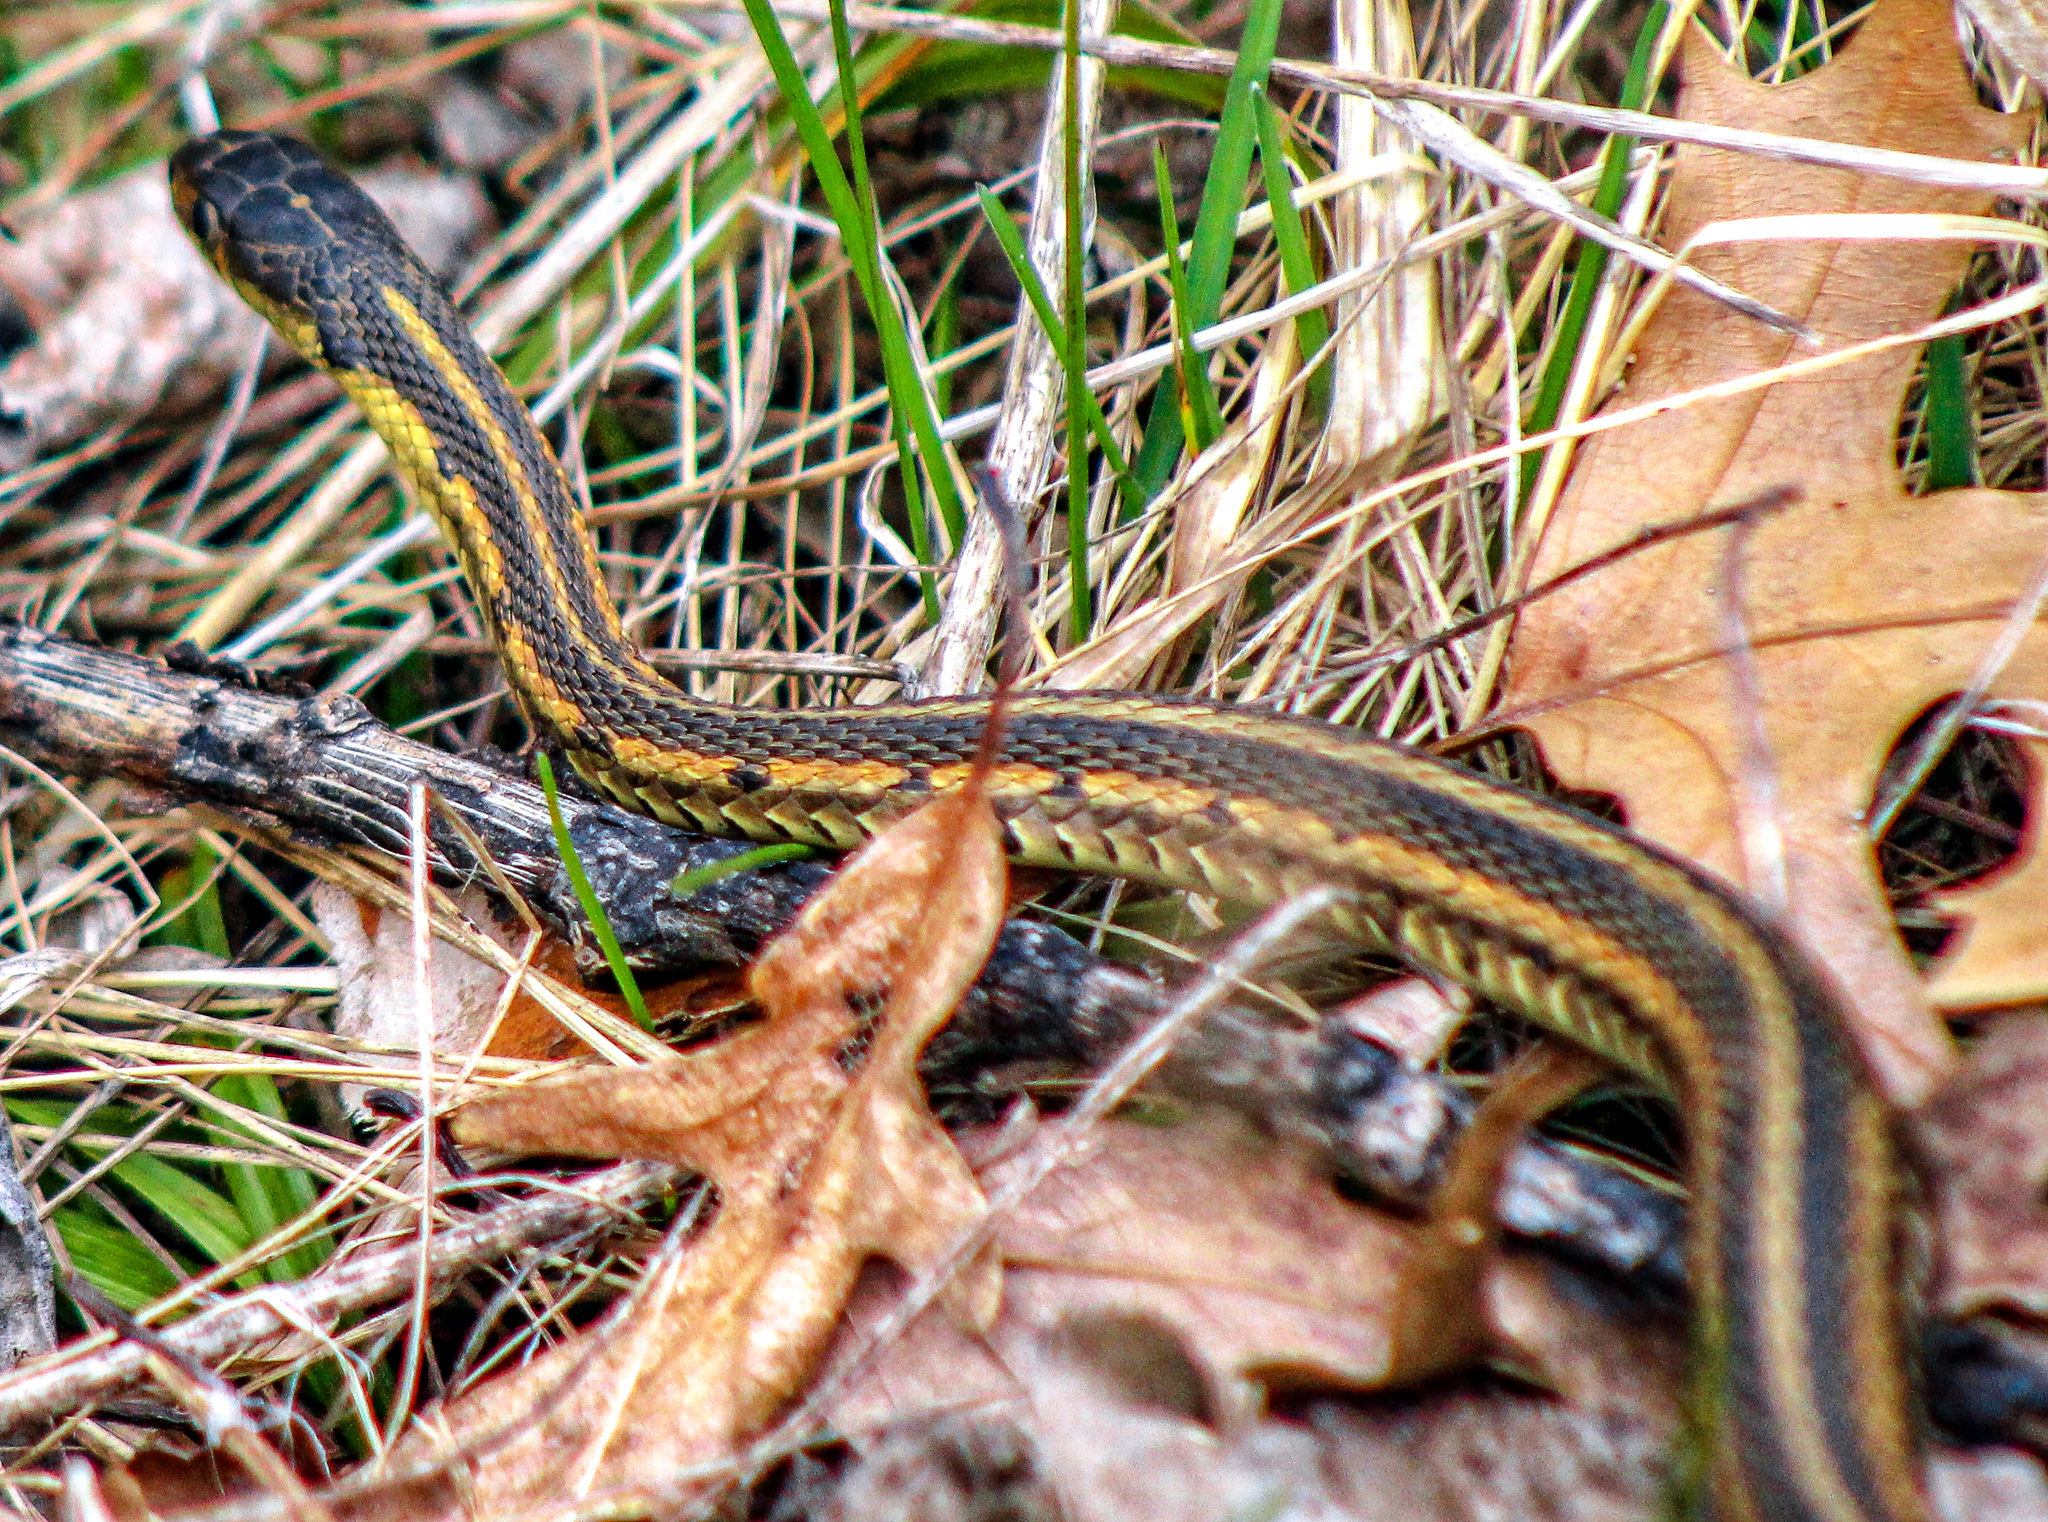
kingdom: Animalia
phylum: Chordata
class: Squamata
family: Colubridae
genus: Thamnophis
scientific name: Thamnophis sirtalis
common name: Common garter snake
